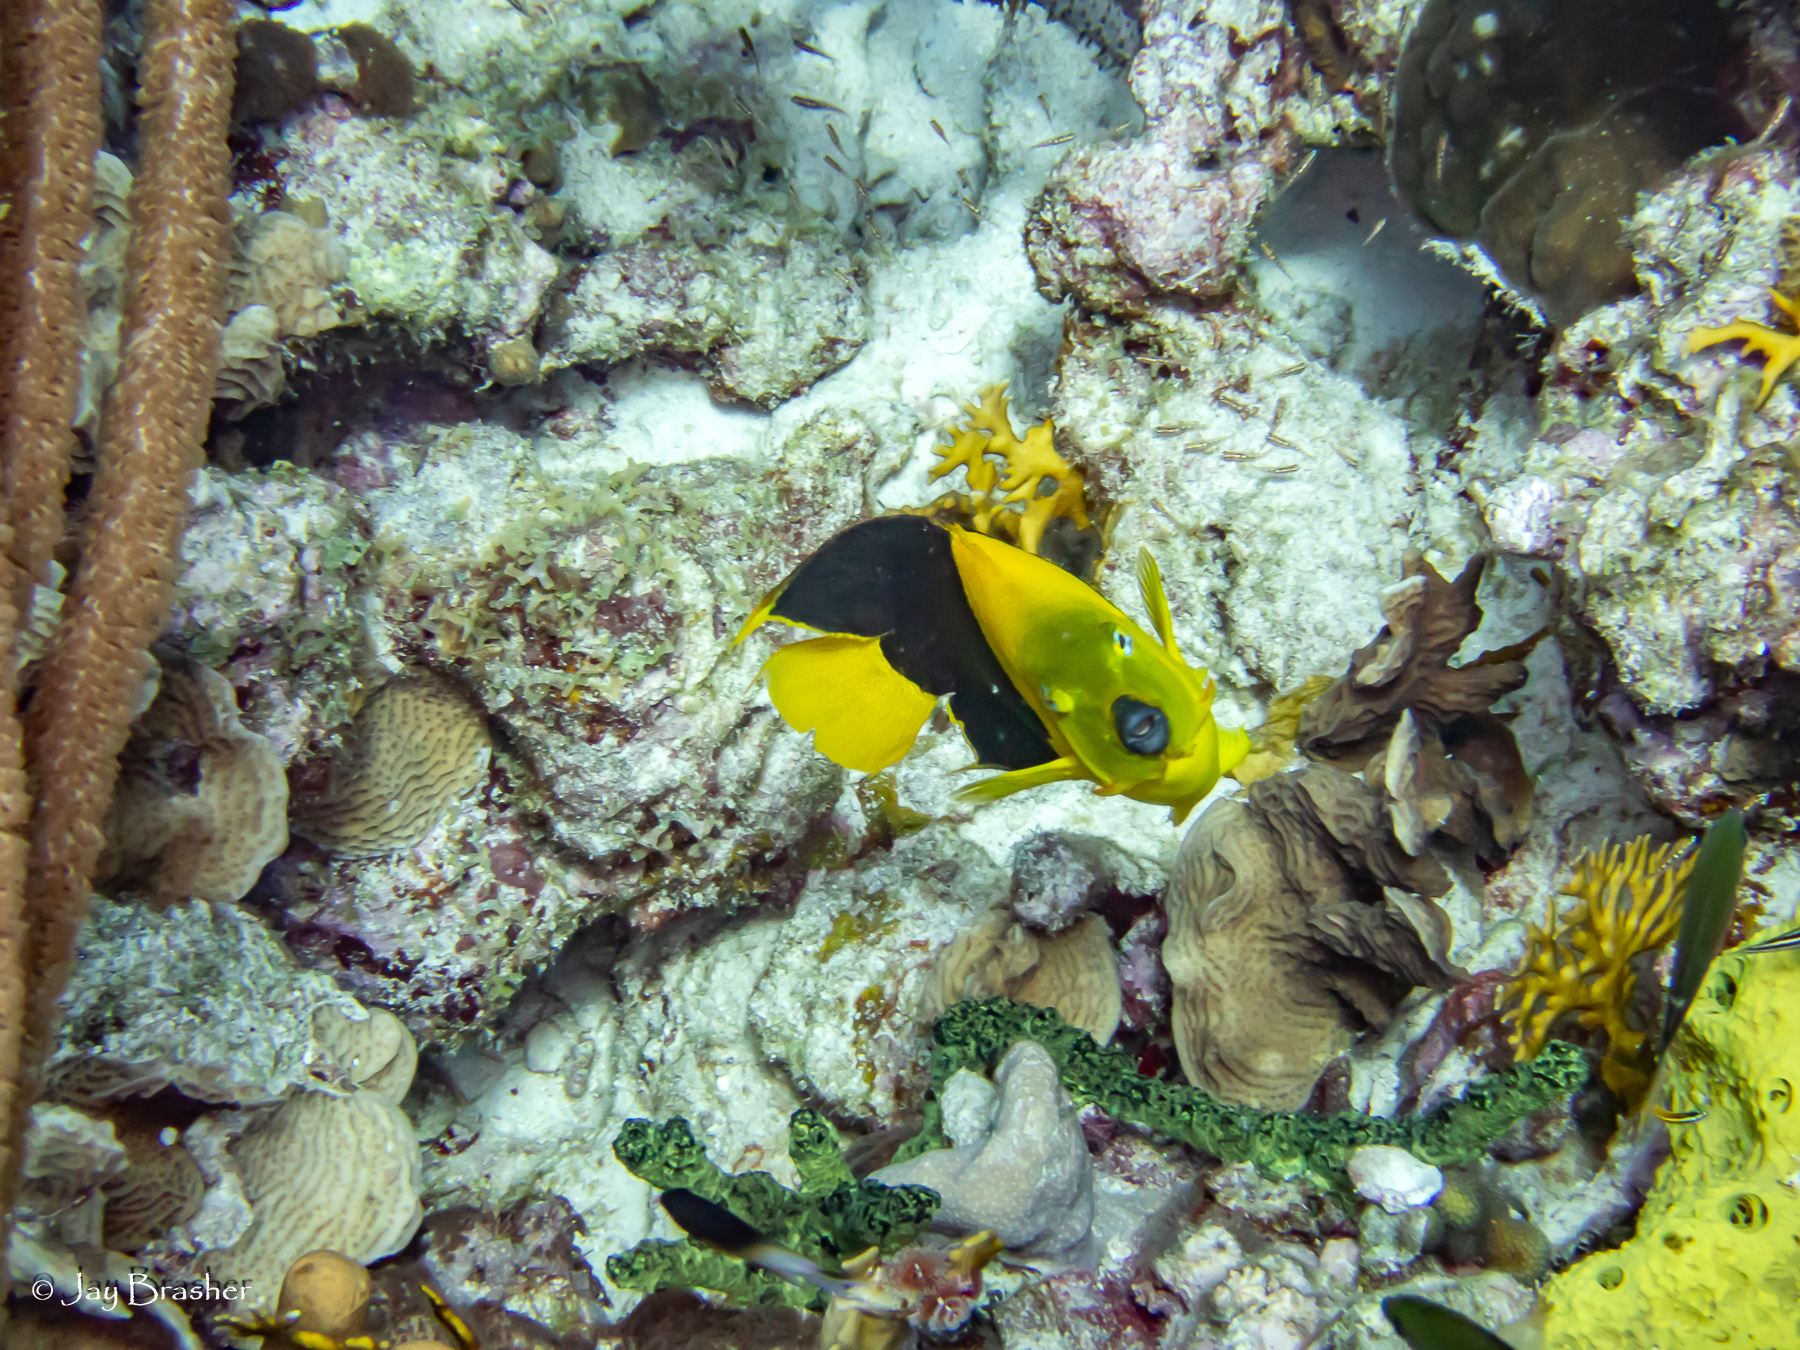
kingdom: Animalia
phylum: Chordata
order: Perciformes
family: Pomacanthidae
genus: Holacanthus
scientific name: Holacanthus tricolor
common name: Rock beauty
